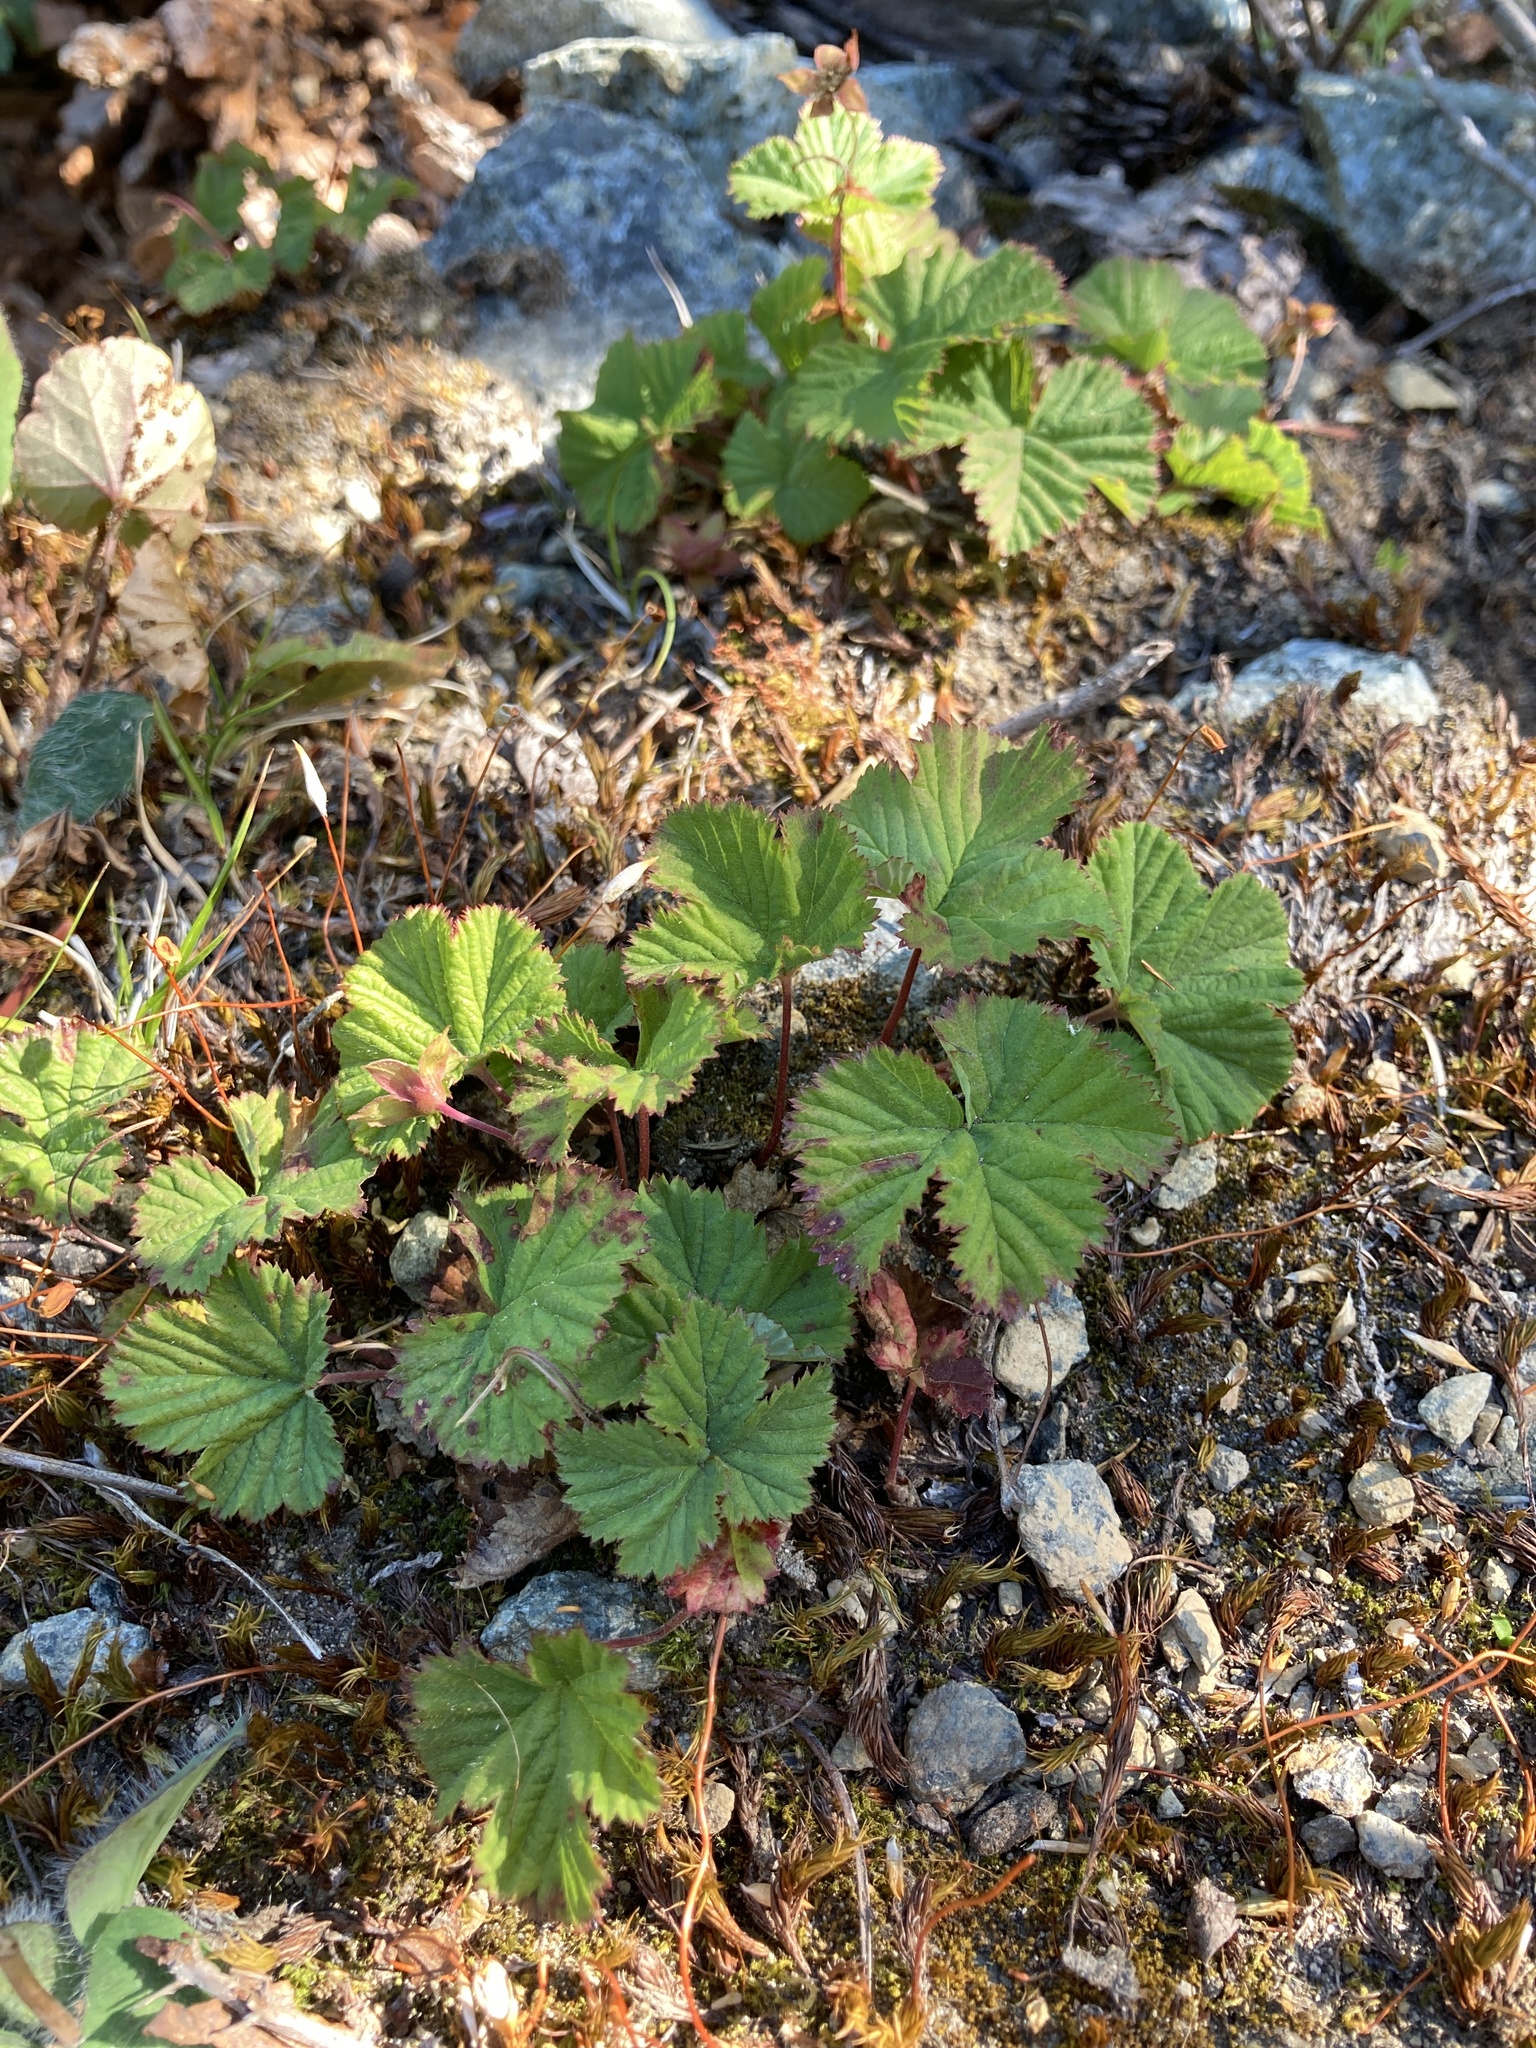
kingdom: Plantae
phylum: Tracheophyta
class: Magnoliopsida
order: Rosales
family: Rosaceae
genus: Rubus
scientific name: Rubus lasiococcus
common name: Dwarf bramble
